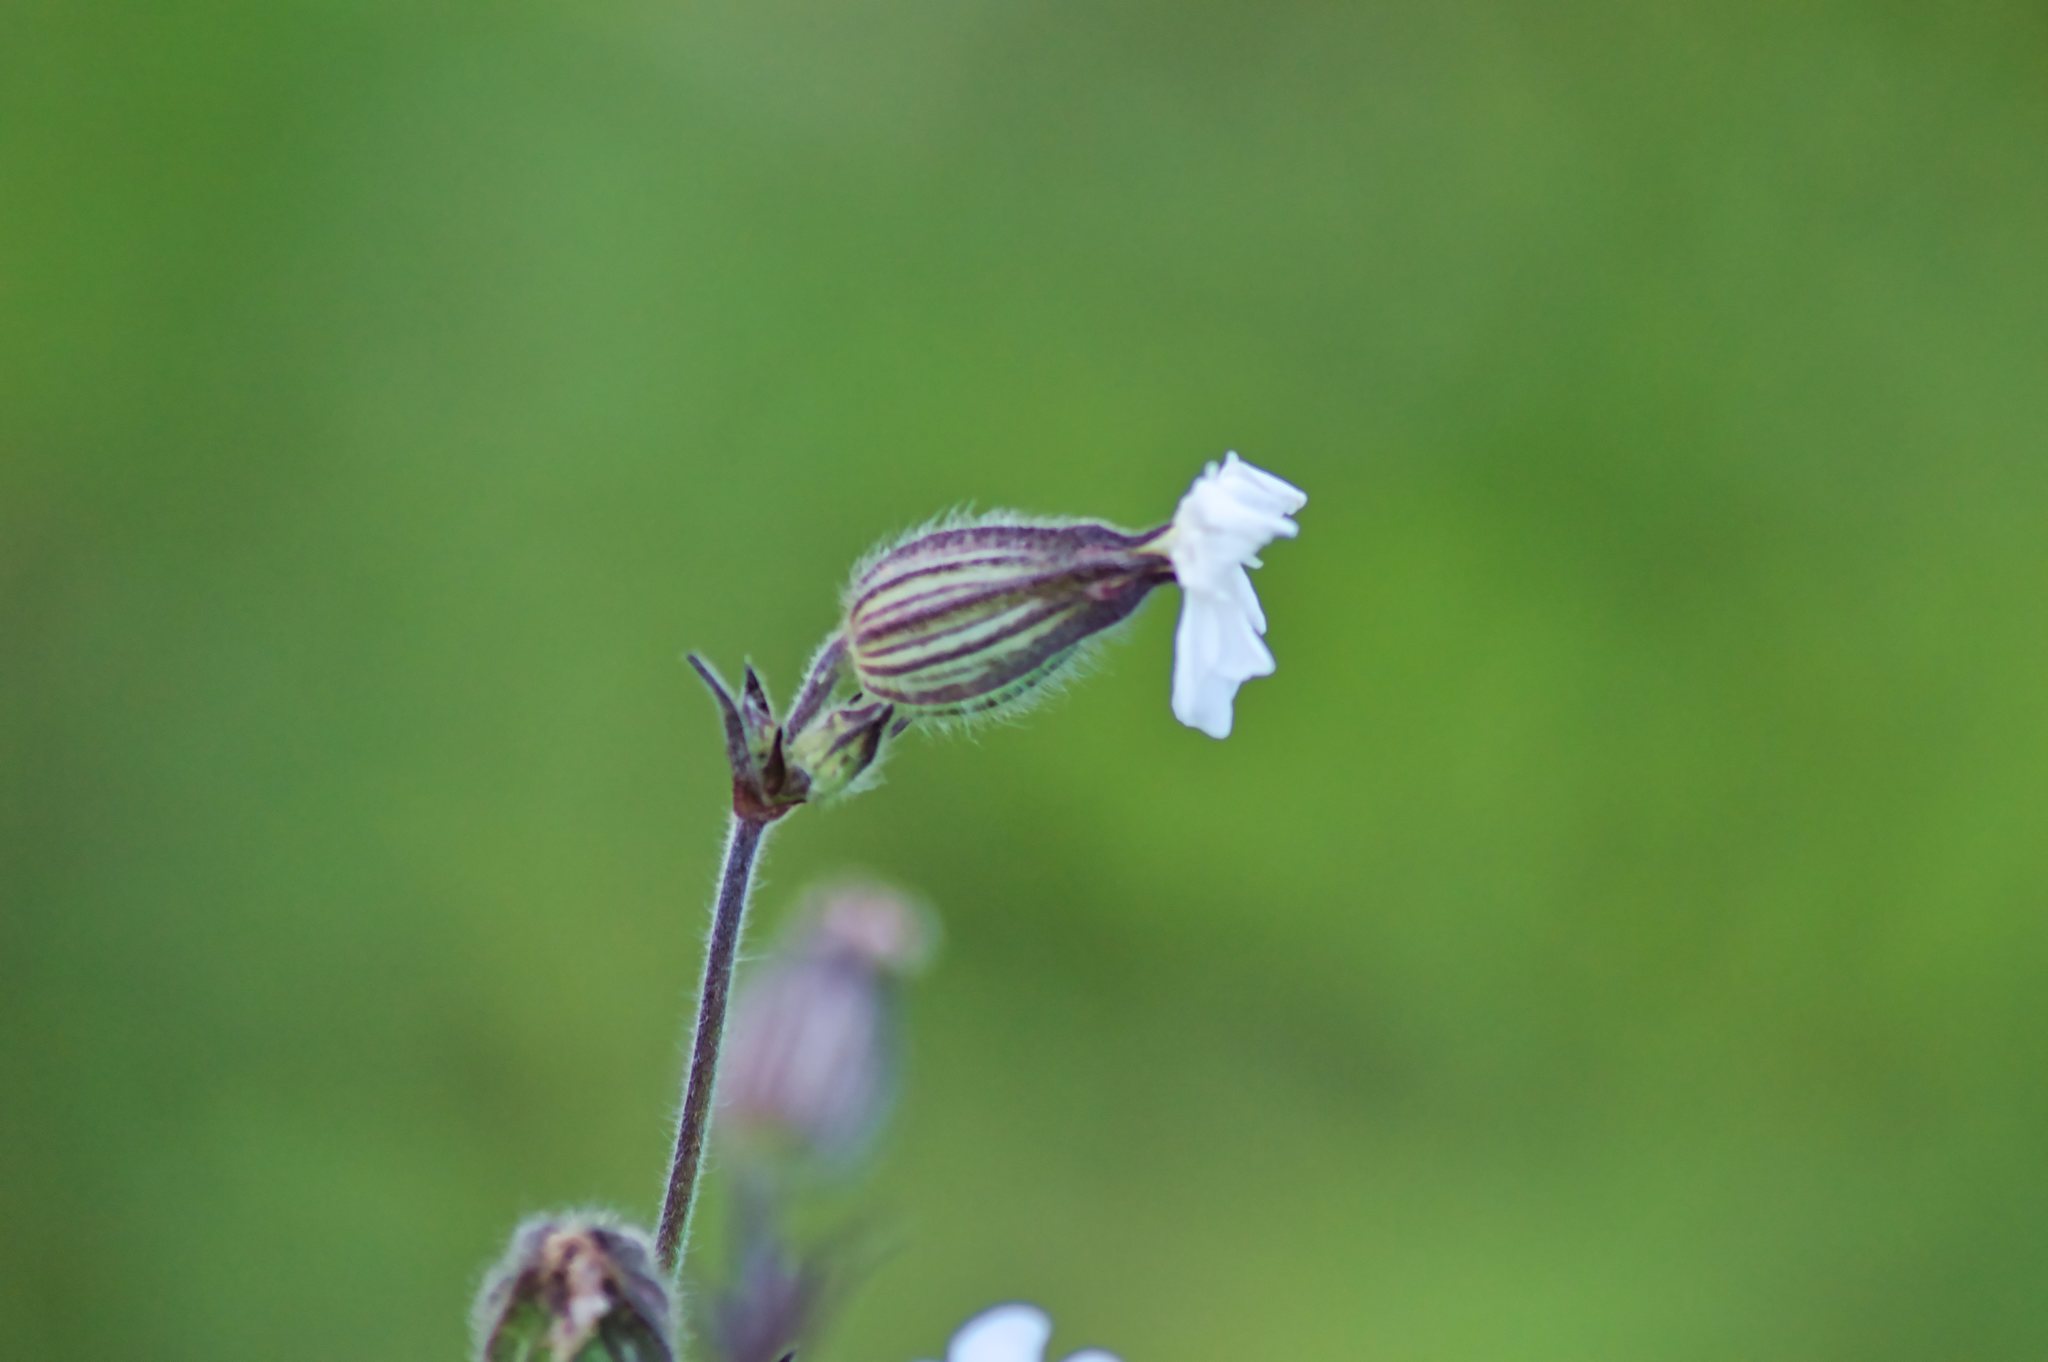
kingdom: Plantae
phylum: Tracheophyta
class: Magnoliopsida
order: Caryophyllales
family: Caryophyllaceae
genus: Silene
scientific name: Silene latifolia
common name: White campion
